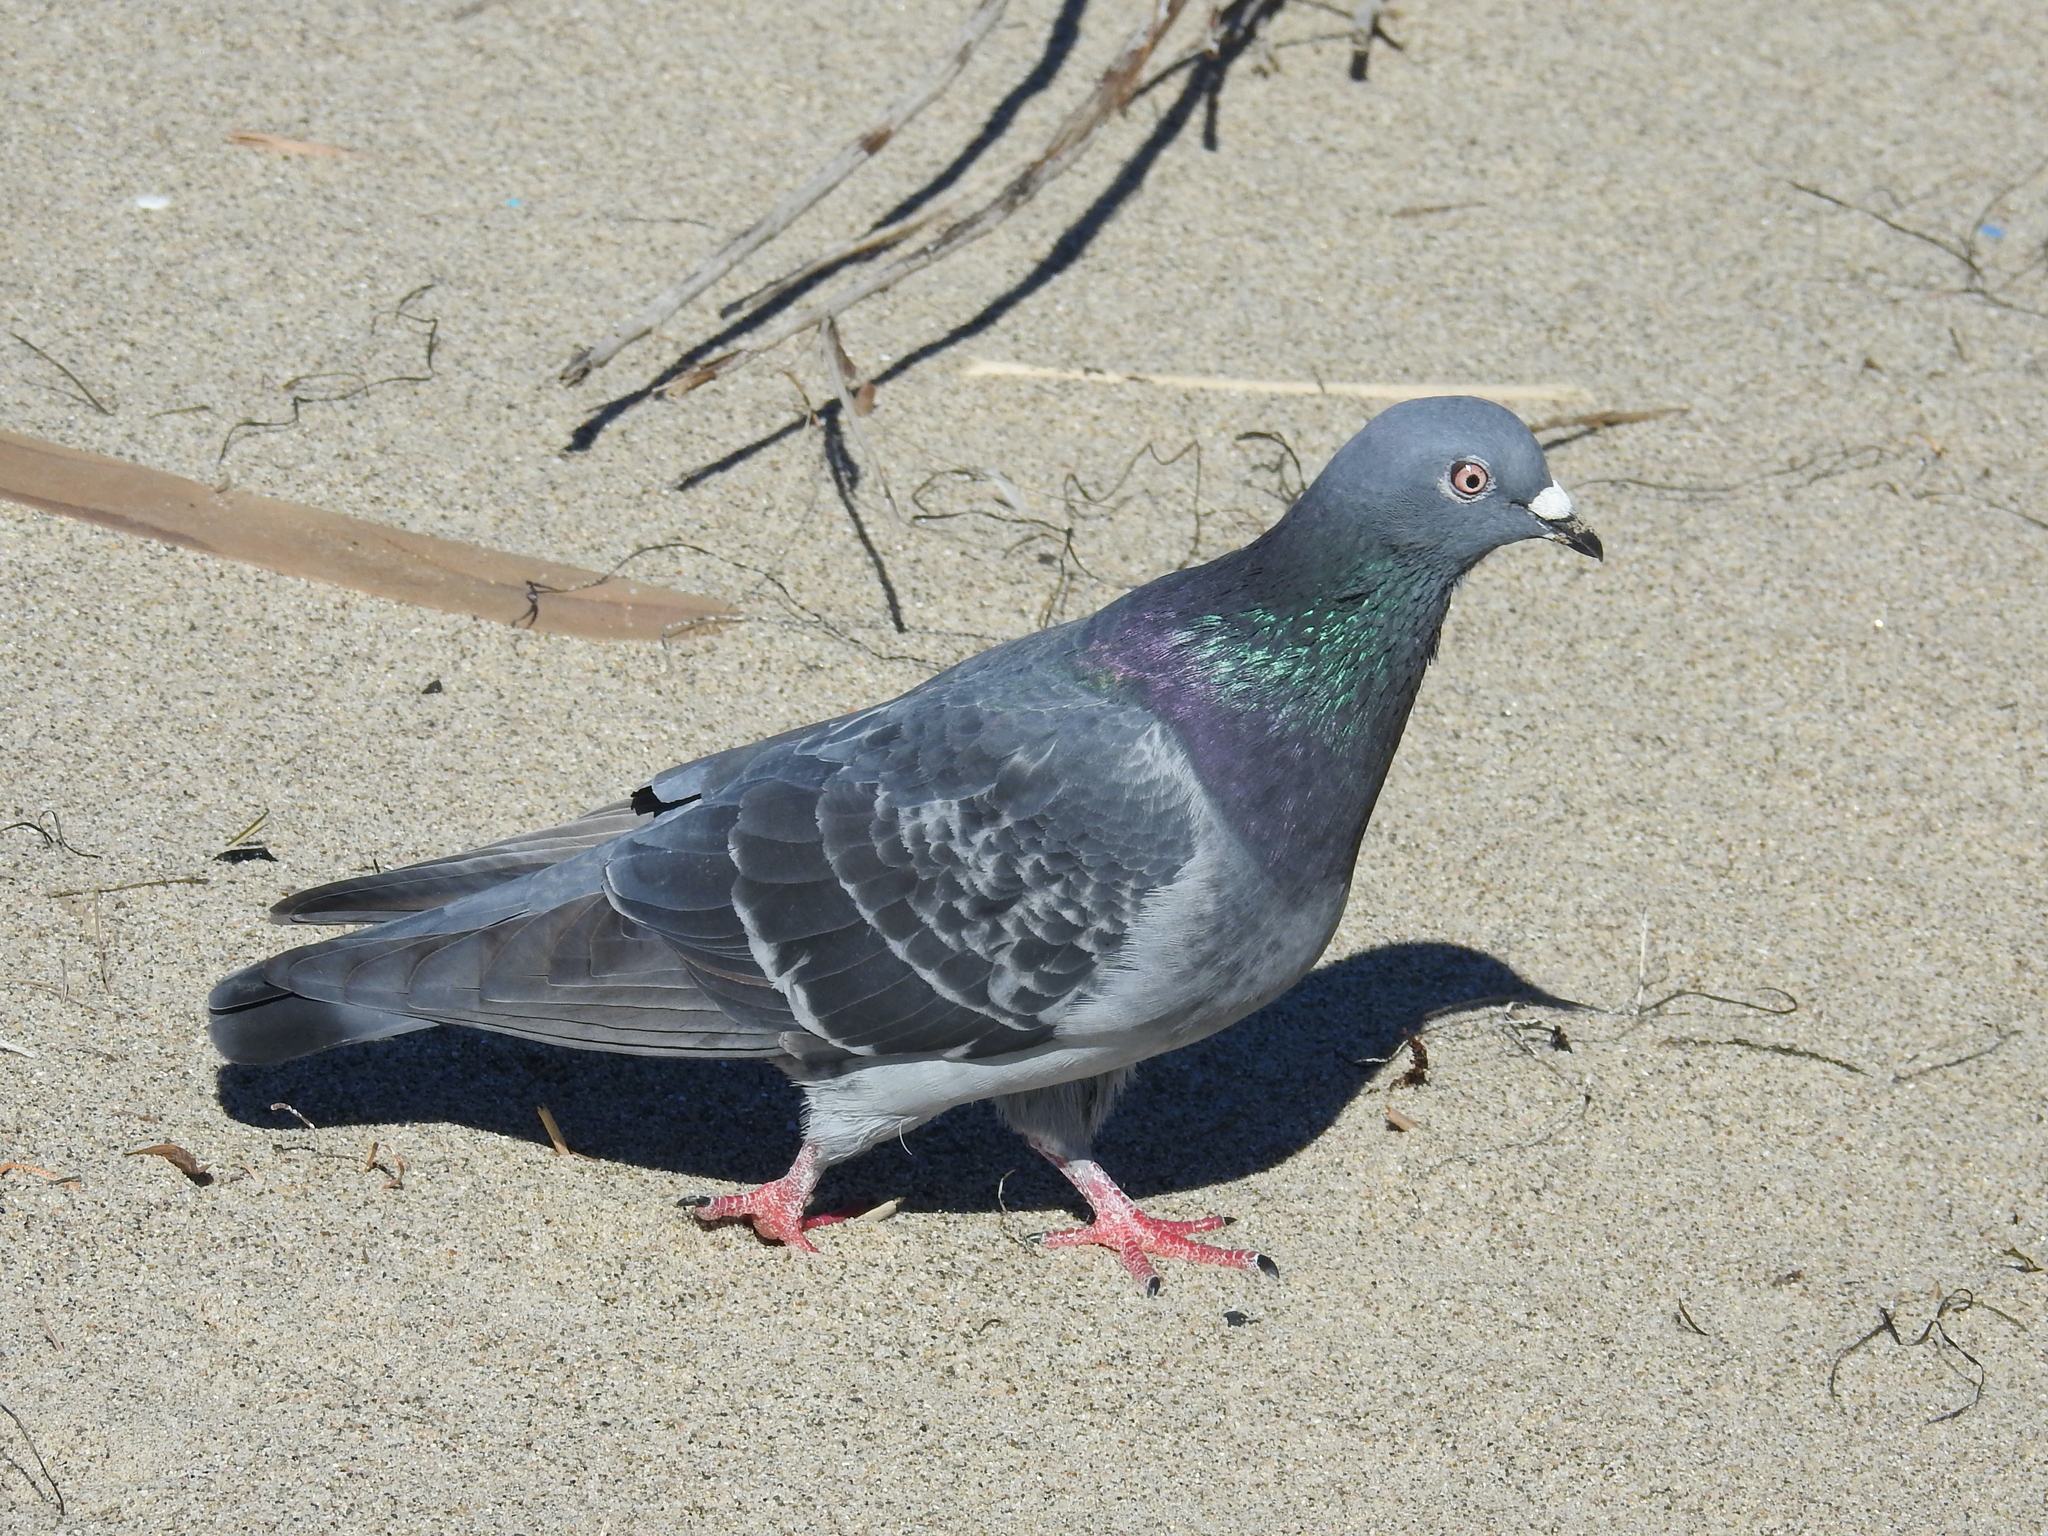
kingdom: Animalia
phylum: Chordata
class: Aves
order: Columbiformes
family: Columbidae
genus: Columba
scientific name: Columba livia
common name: Rock pigeon
